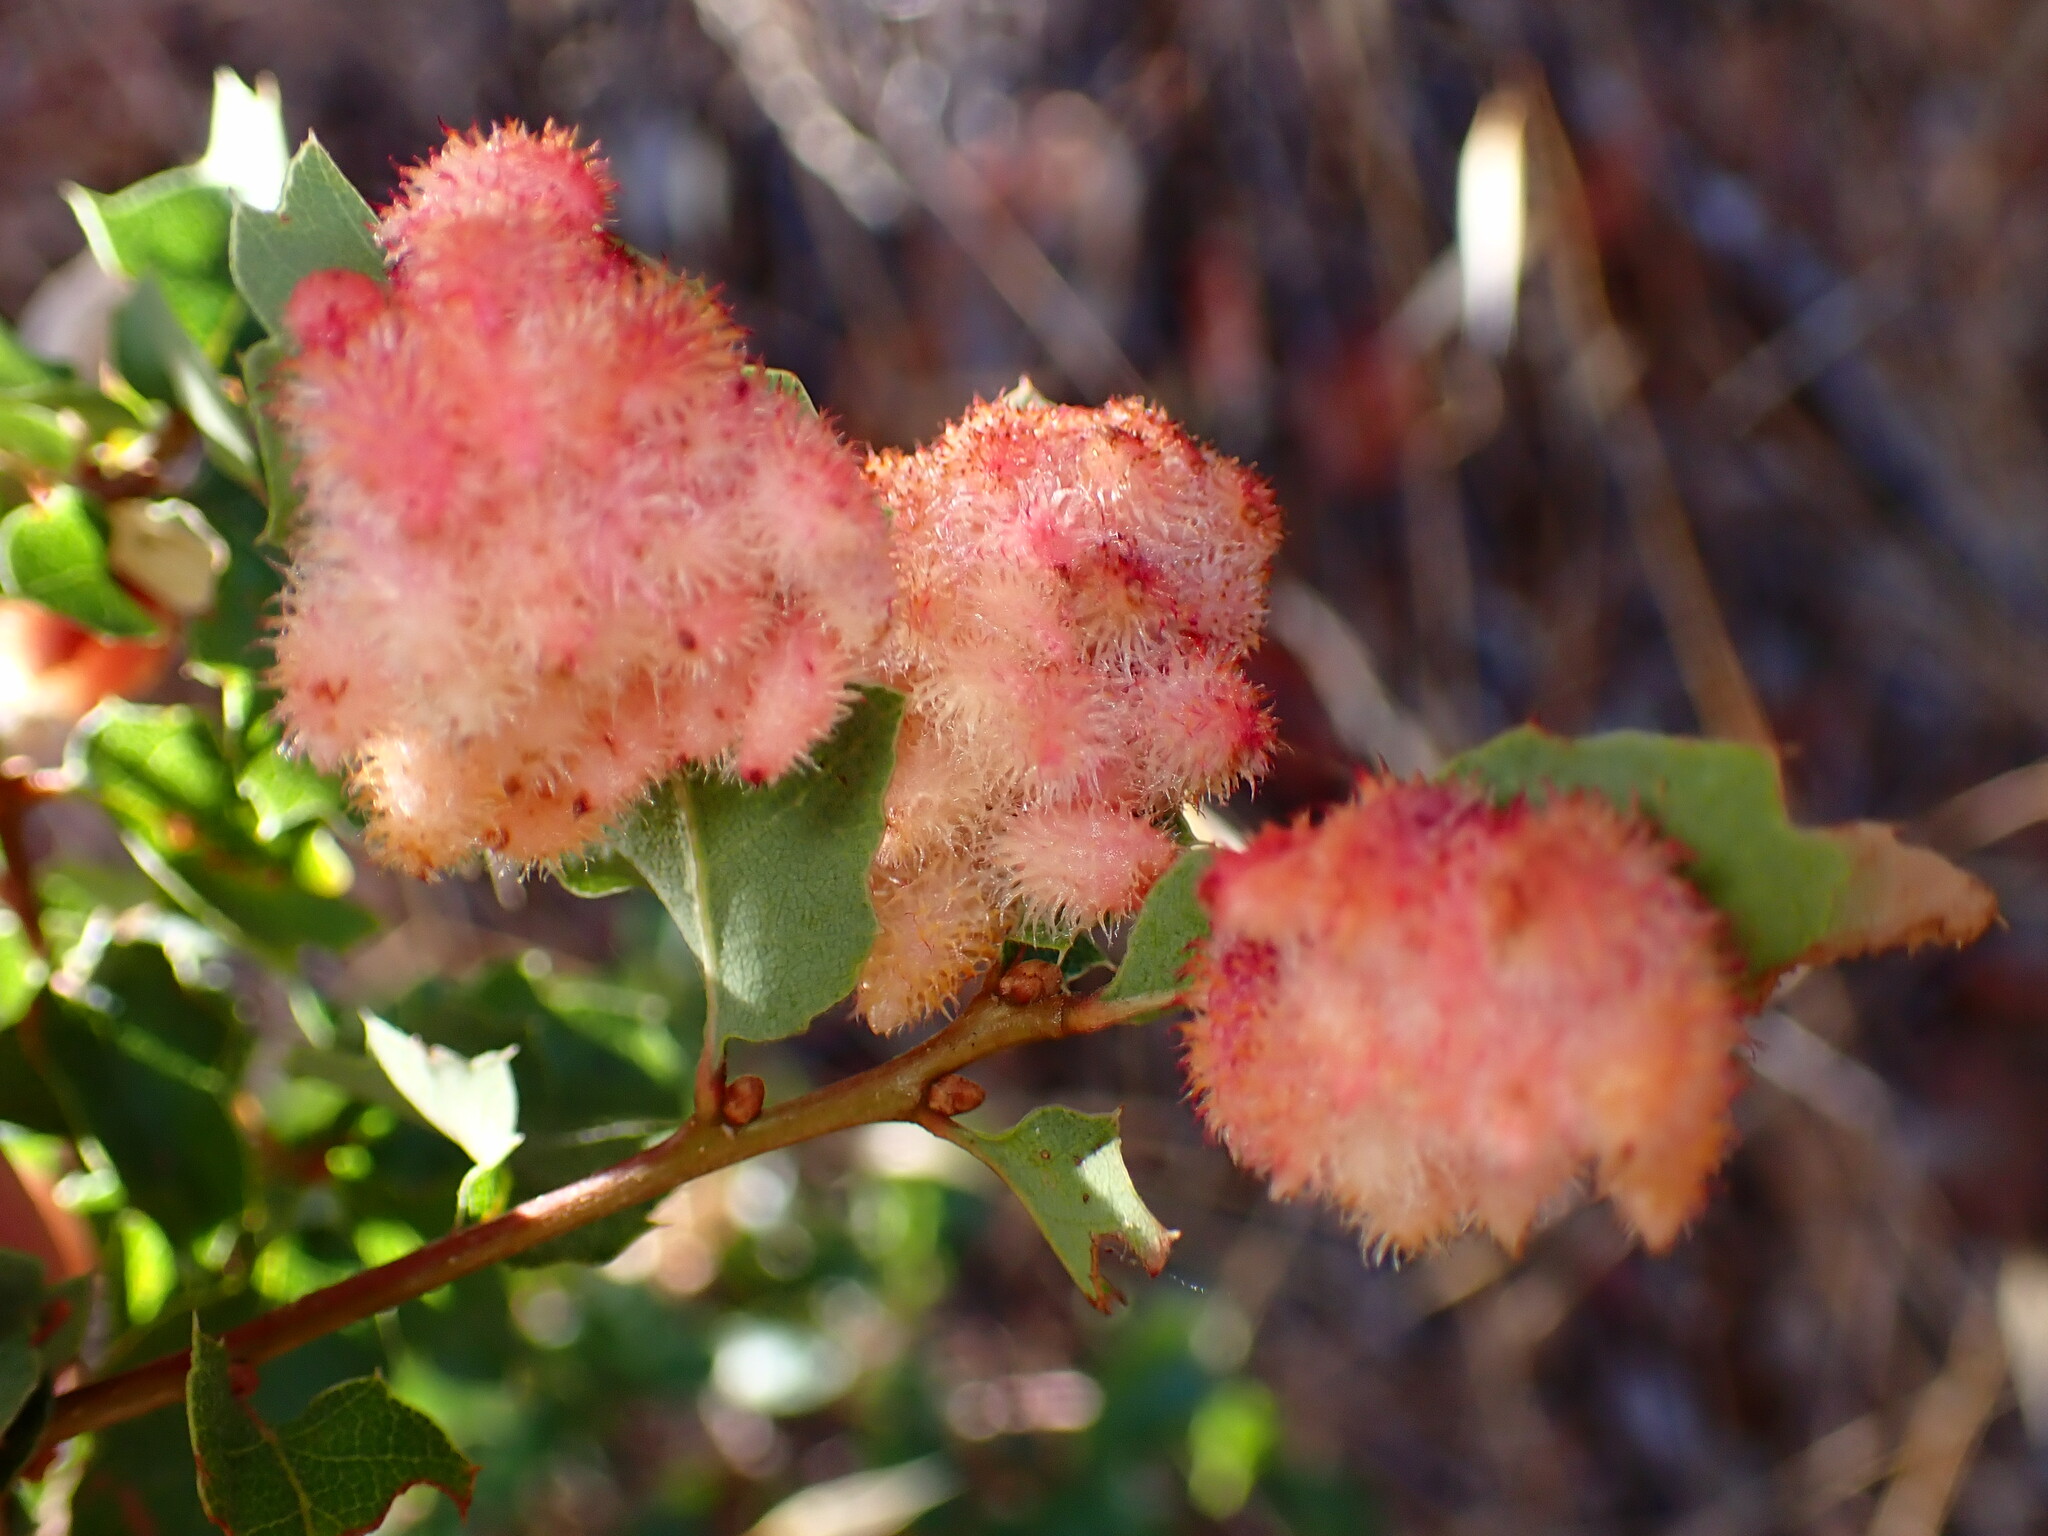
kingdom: Animalia
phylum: Arthropoda
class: Insecta
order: Hymenoptera
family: Cynipidae
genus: Andricus
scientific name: Andricus
